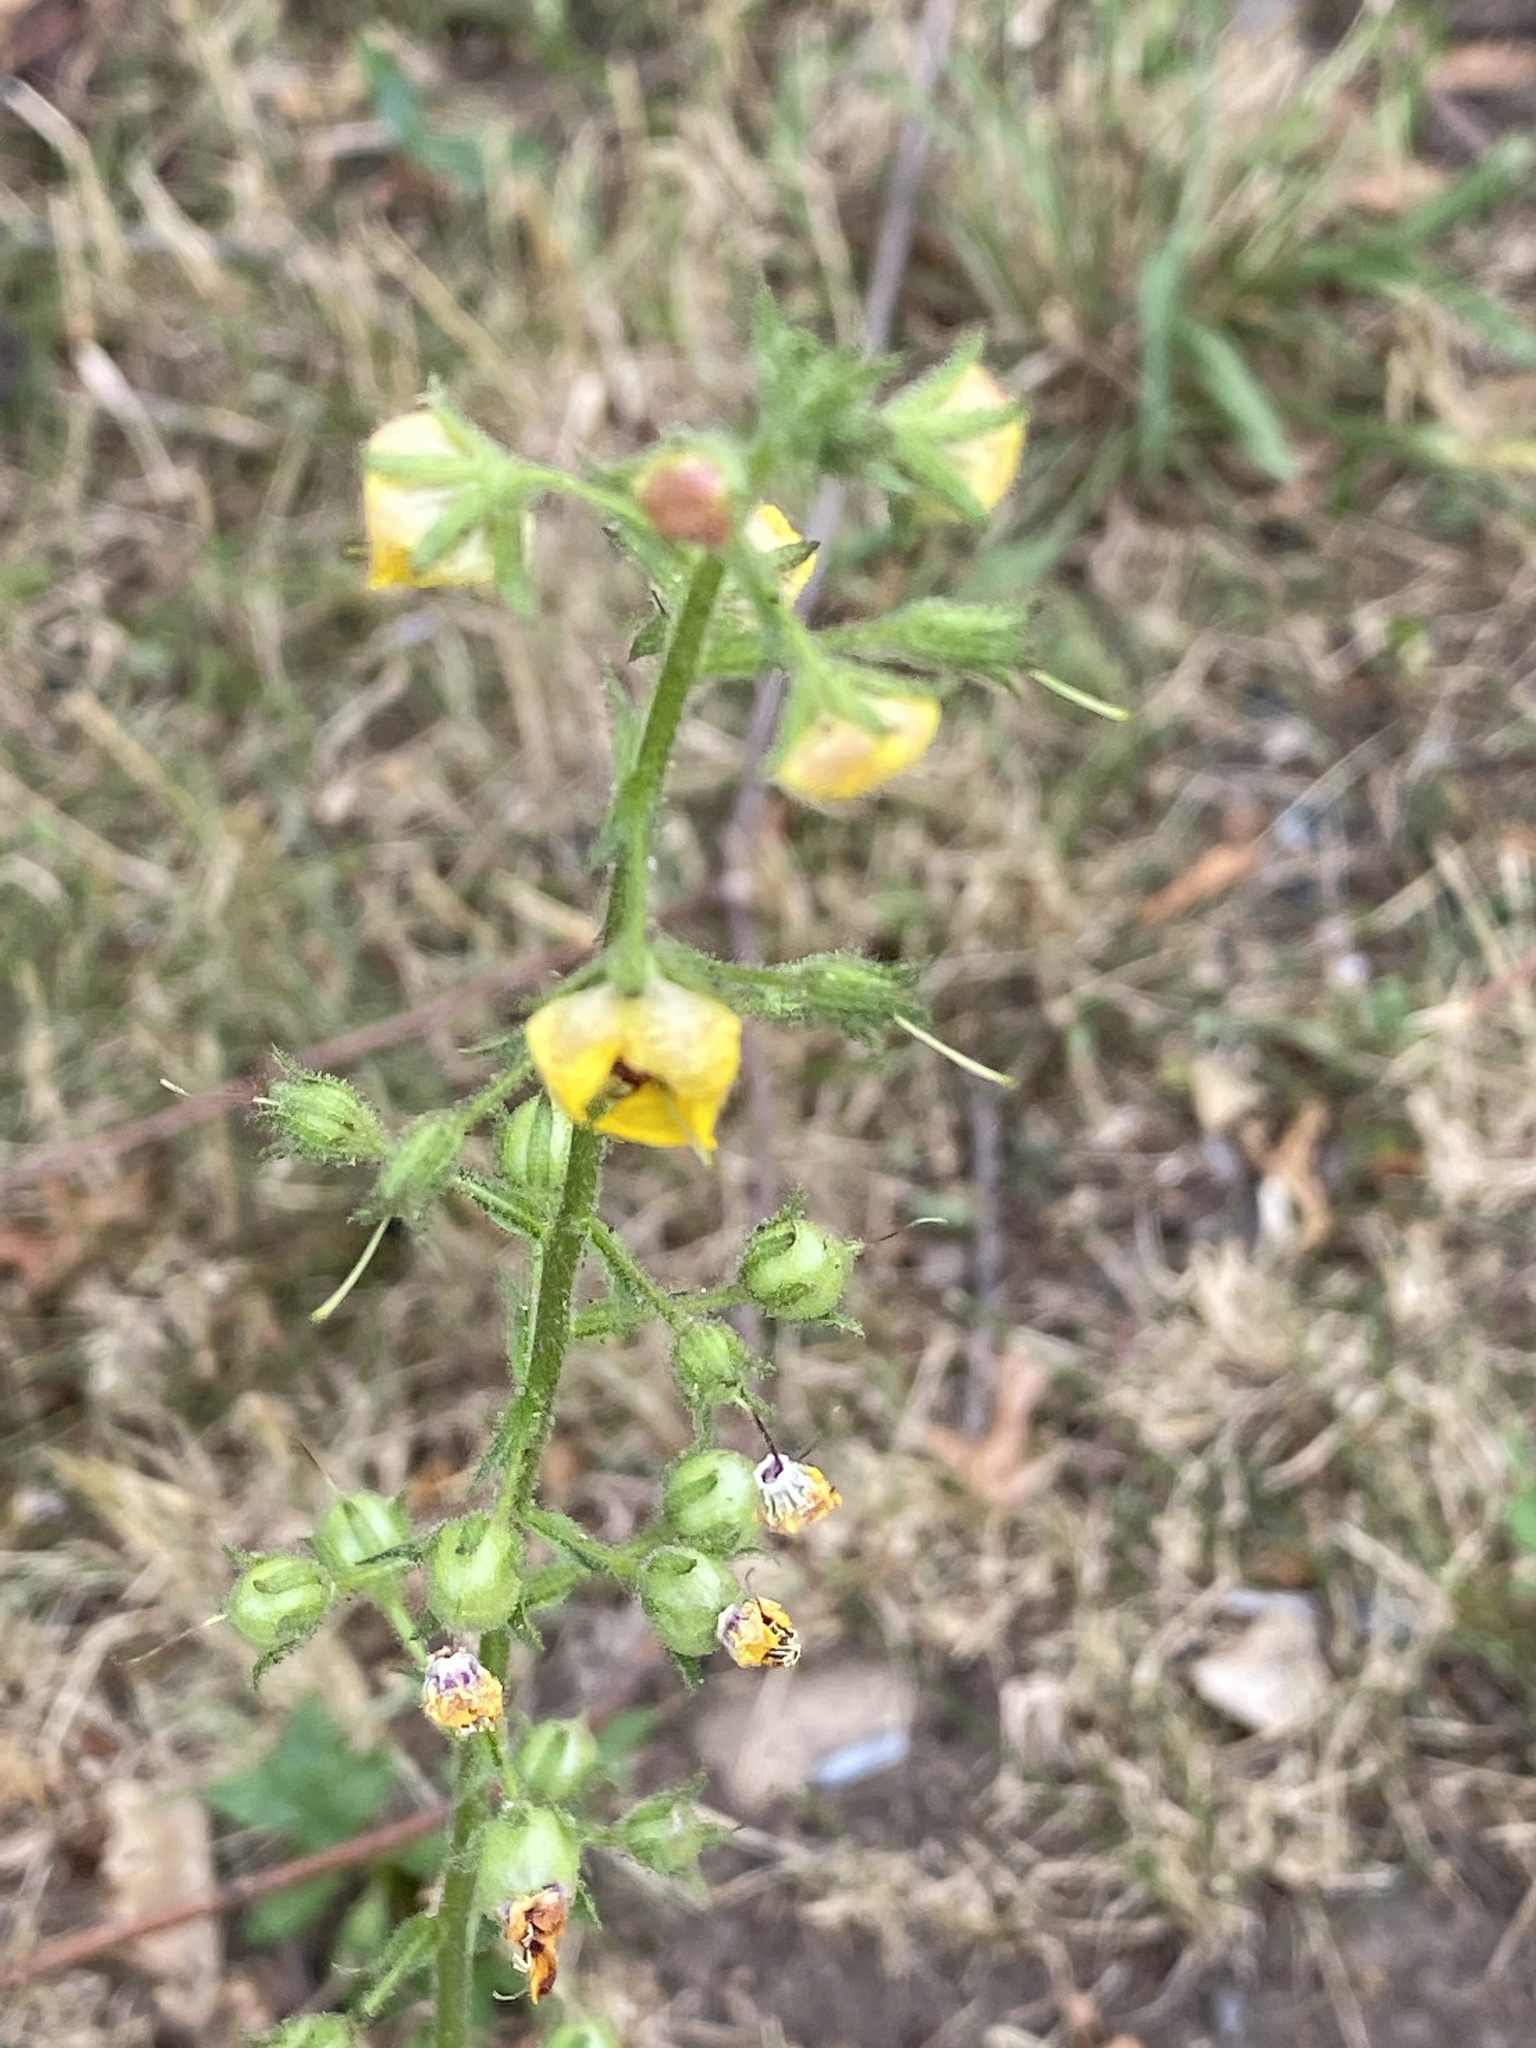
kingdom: Plantae
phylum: Tracheophyta
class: Magnoliopsida
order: Lamiales
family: Scrophulariaceae
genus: Verbascum
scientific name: Verbascum blattaria
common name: Moth mullein
